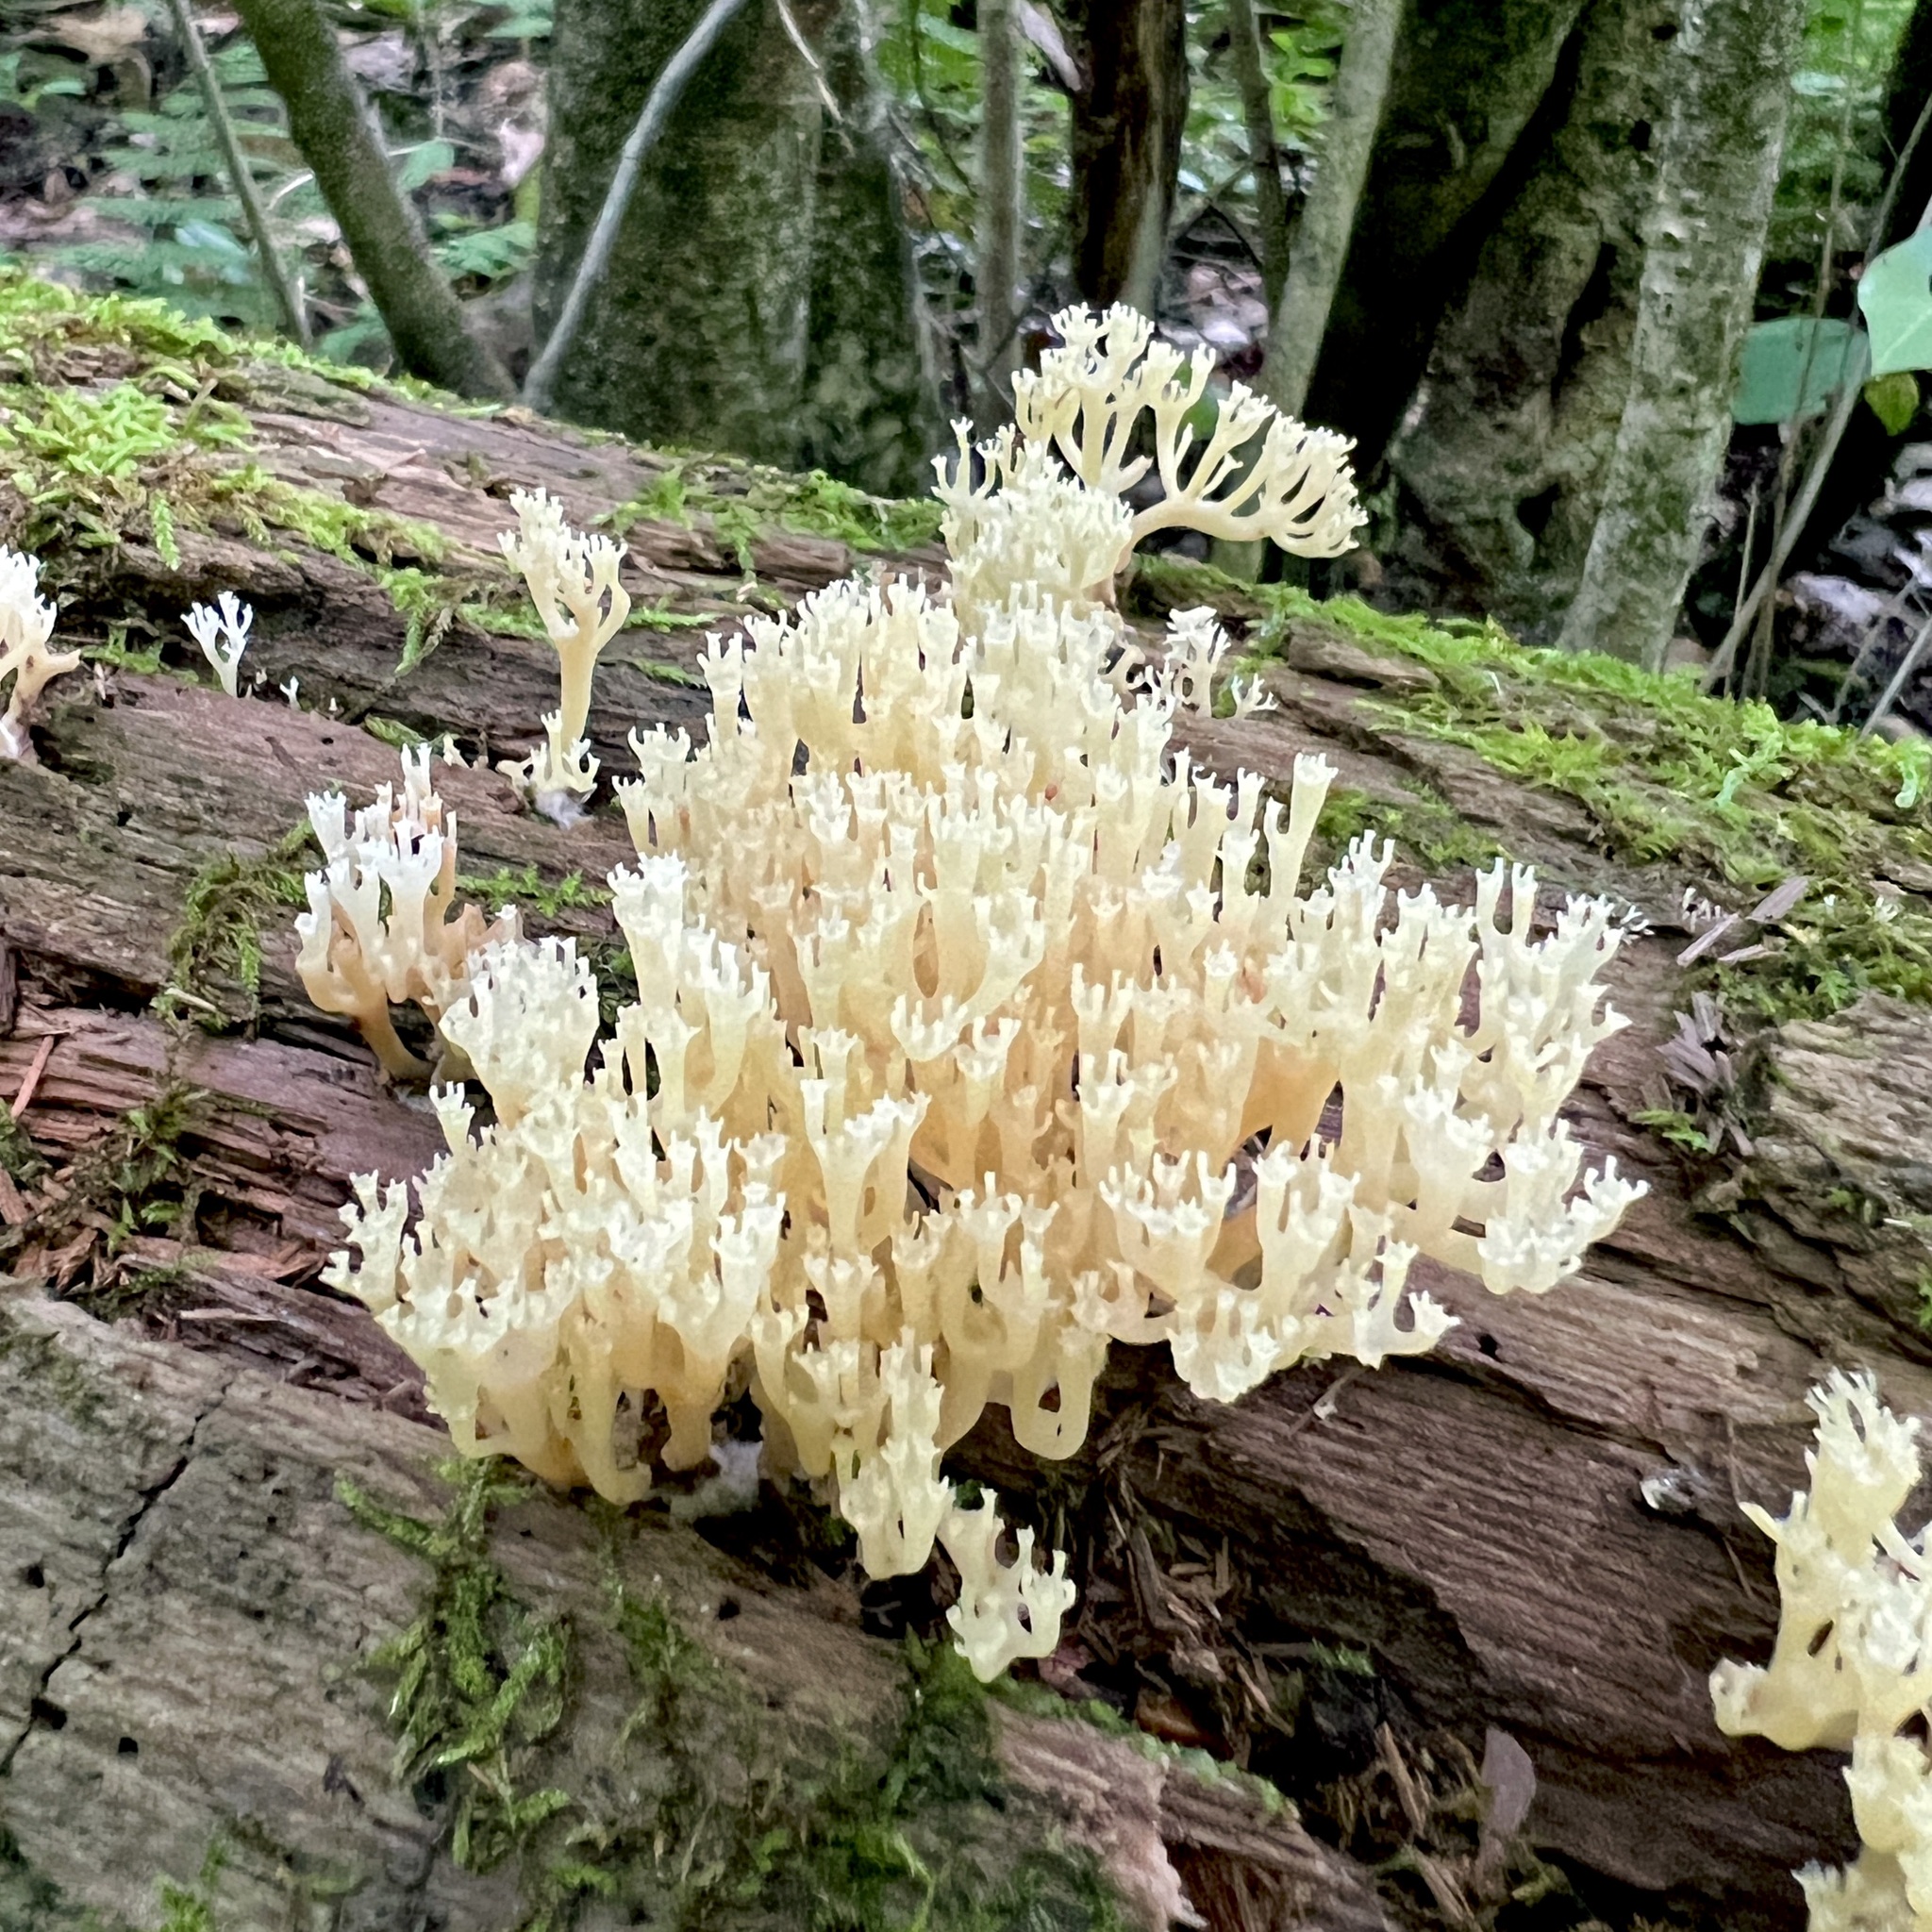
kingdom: Fungi
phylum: Basidiomycota
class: Agaricomycetes
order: Russulales
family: Auriscalpiaceae
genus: Artomyces
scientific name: Artomyces pyxidatus
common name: Crown-tipped coral fungus
